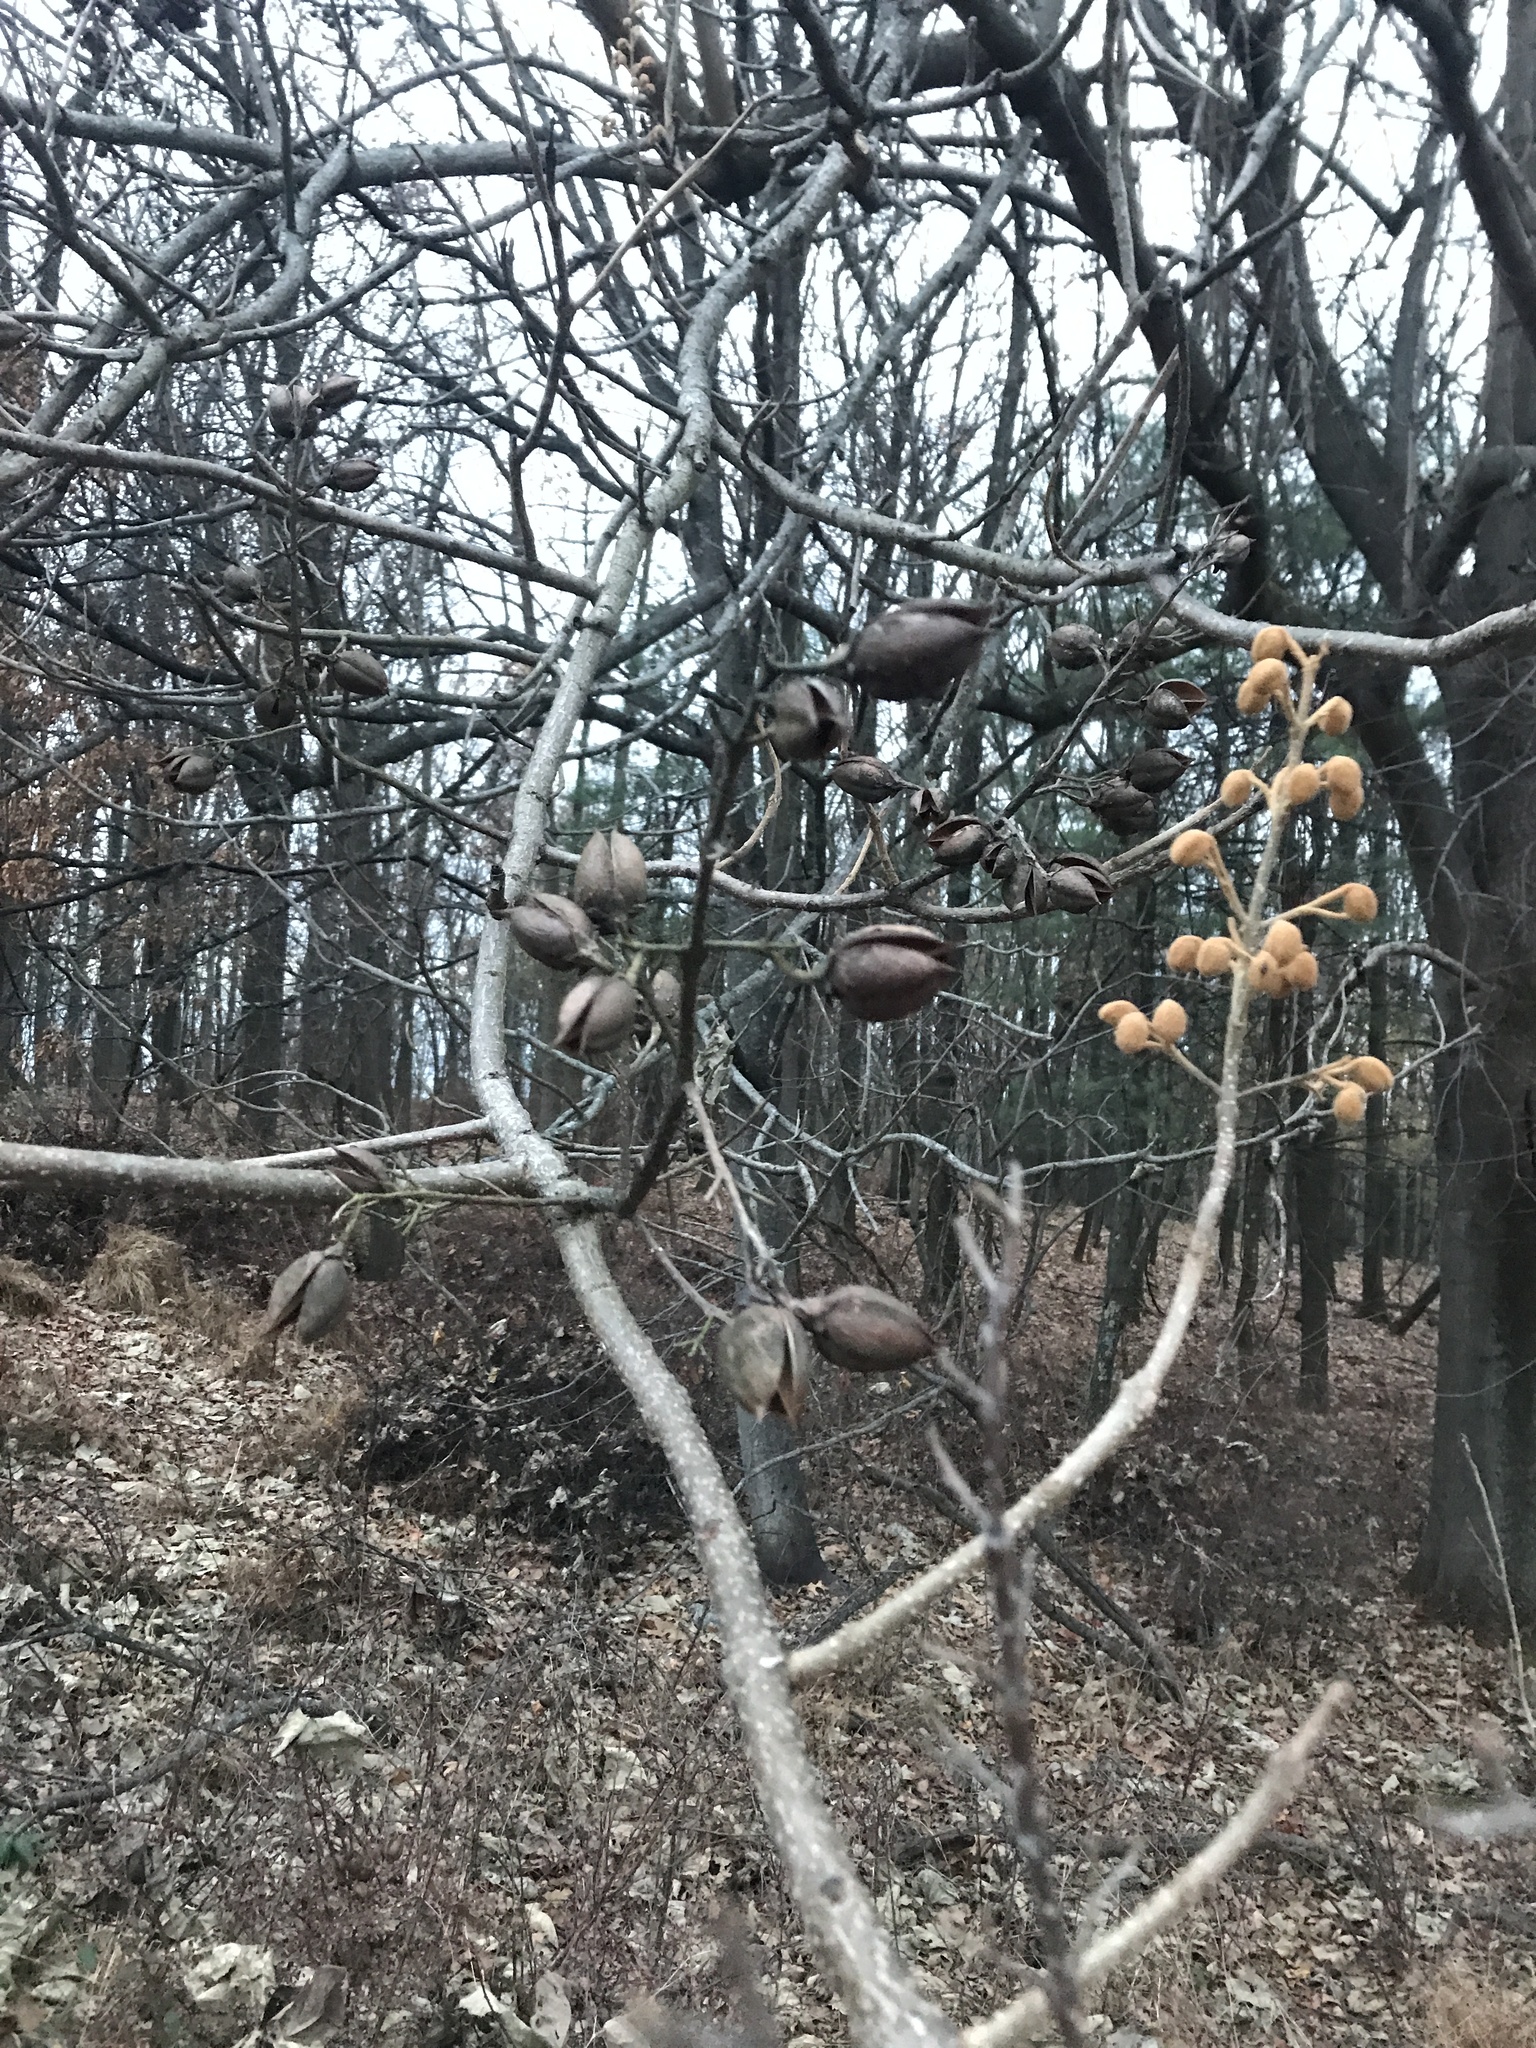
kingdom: Plantae
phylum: Tracheophyta
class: Magnoliopsida
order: Lamiales
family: Paulowniaceae
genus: Paulownia
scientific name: Paulownia tomentosa
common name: Foxglove-tree
